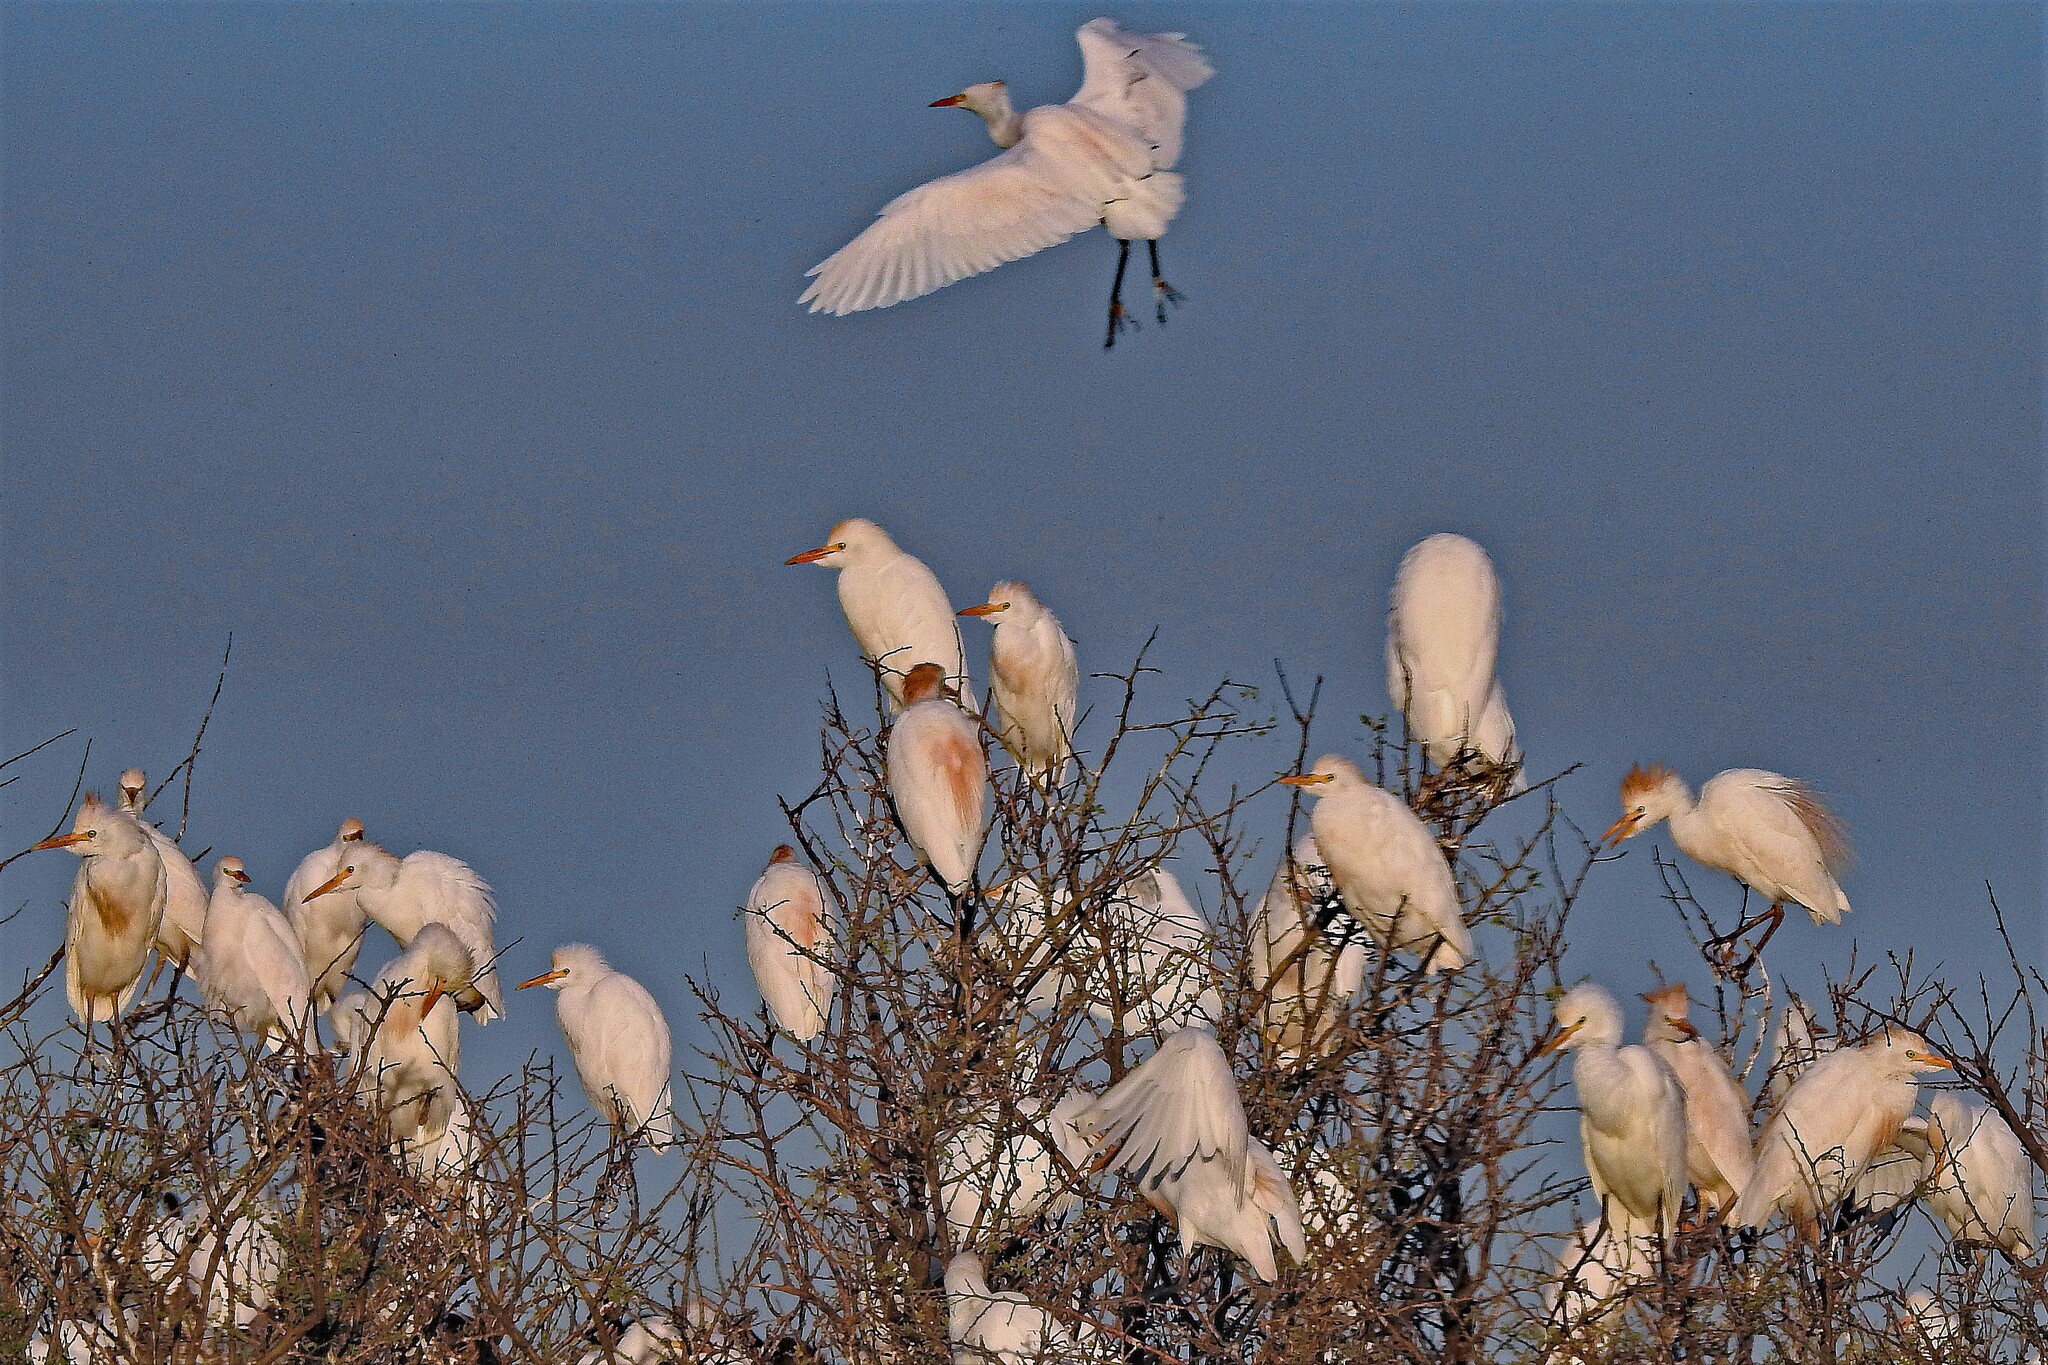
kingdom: Animalia
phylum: Chordata
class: Aves
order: Pelecaniformes
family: Ardeidae
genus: Bubulcus
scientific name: Bubulcus ibis
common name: Cattle egret
